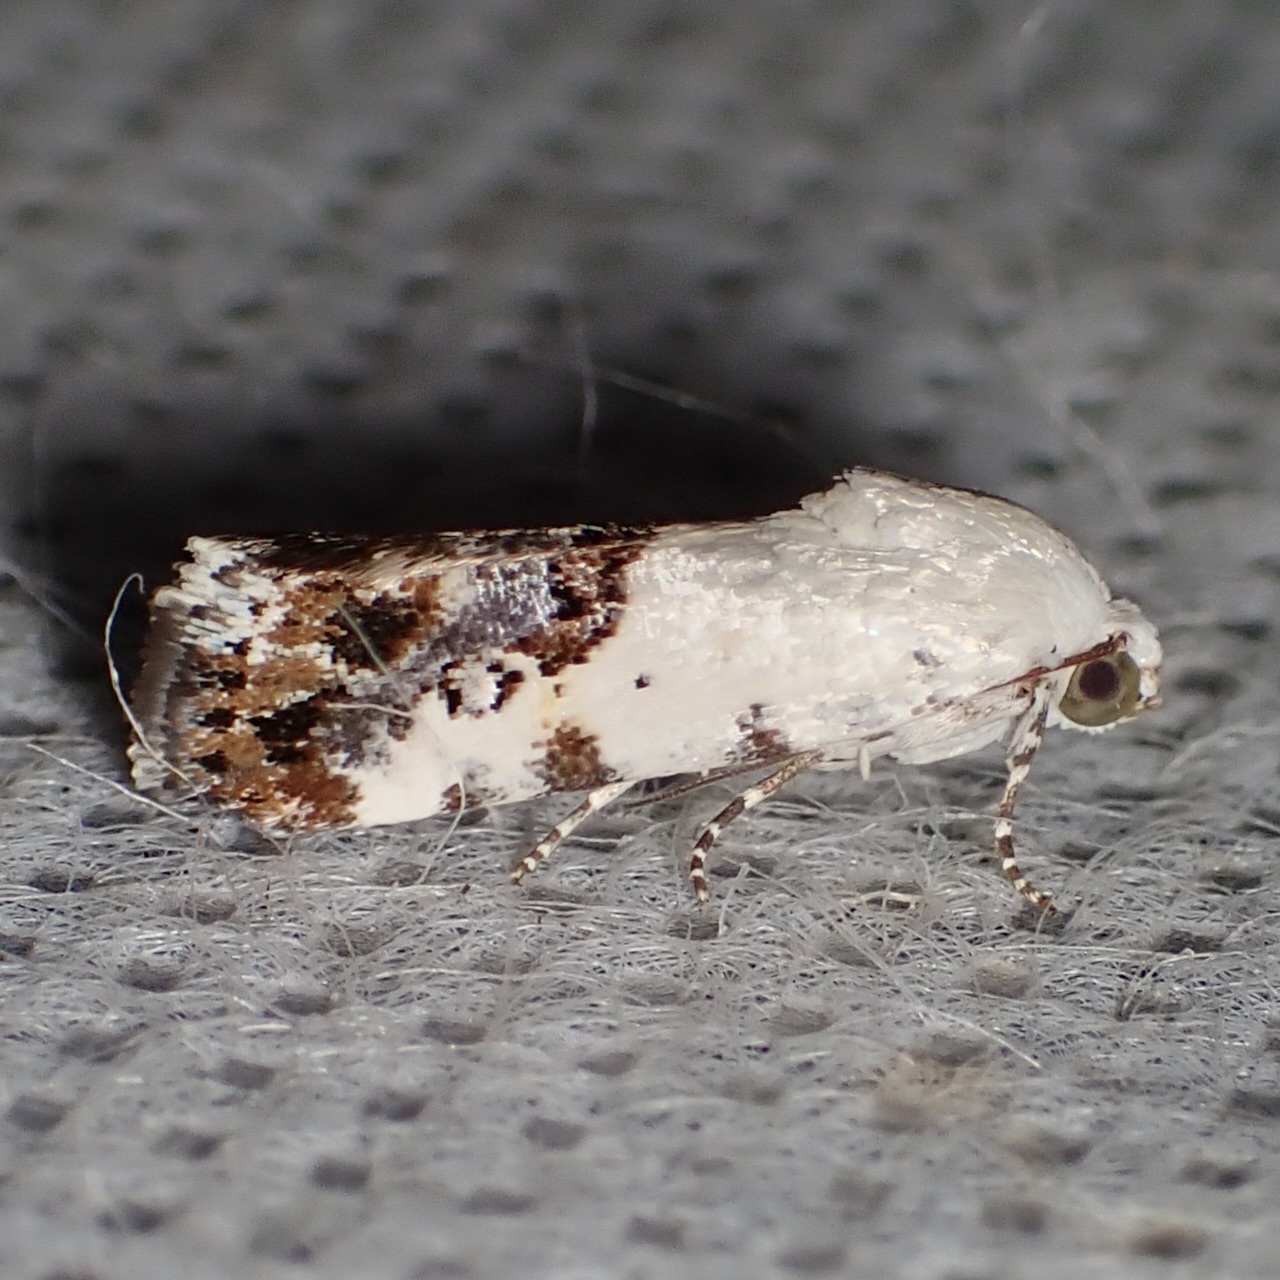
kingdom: Animalia
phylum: Arthropoda
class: Insecta
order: Lepidoptera
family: Noctuidae
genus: Acontia
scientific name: Acontia phecolisca
